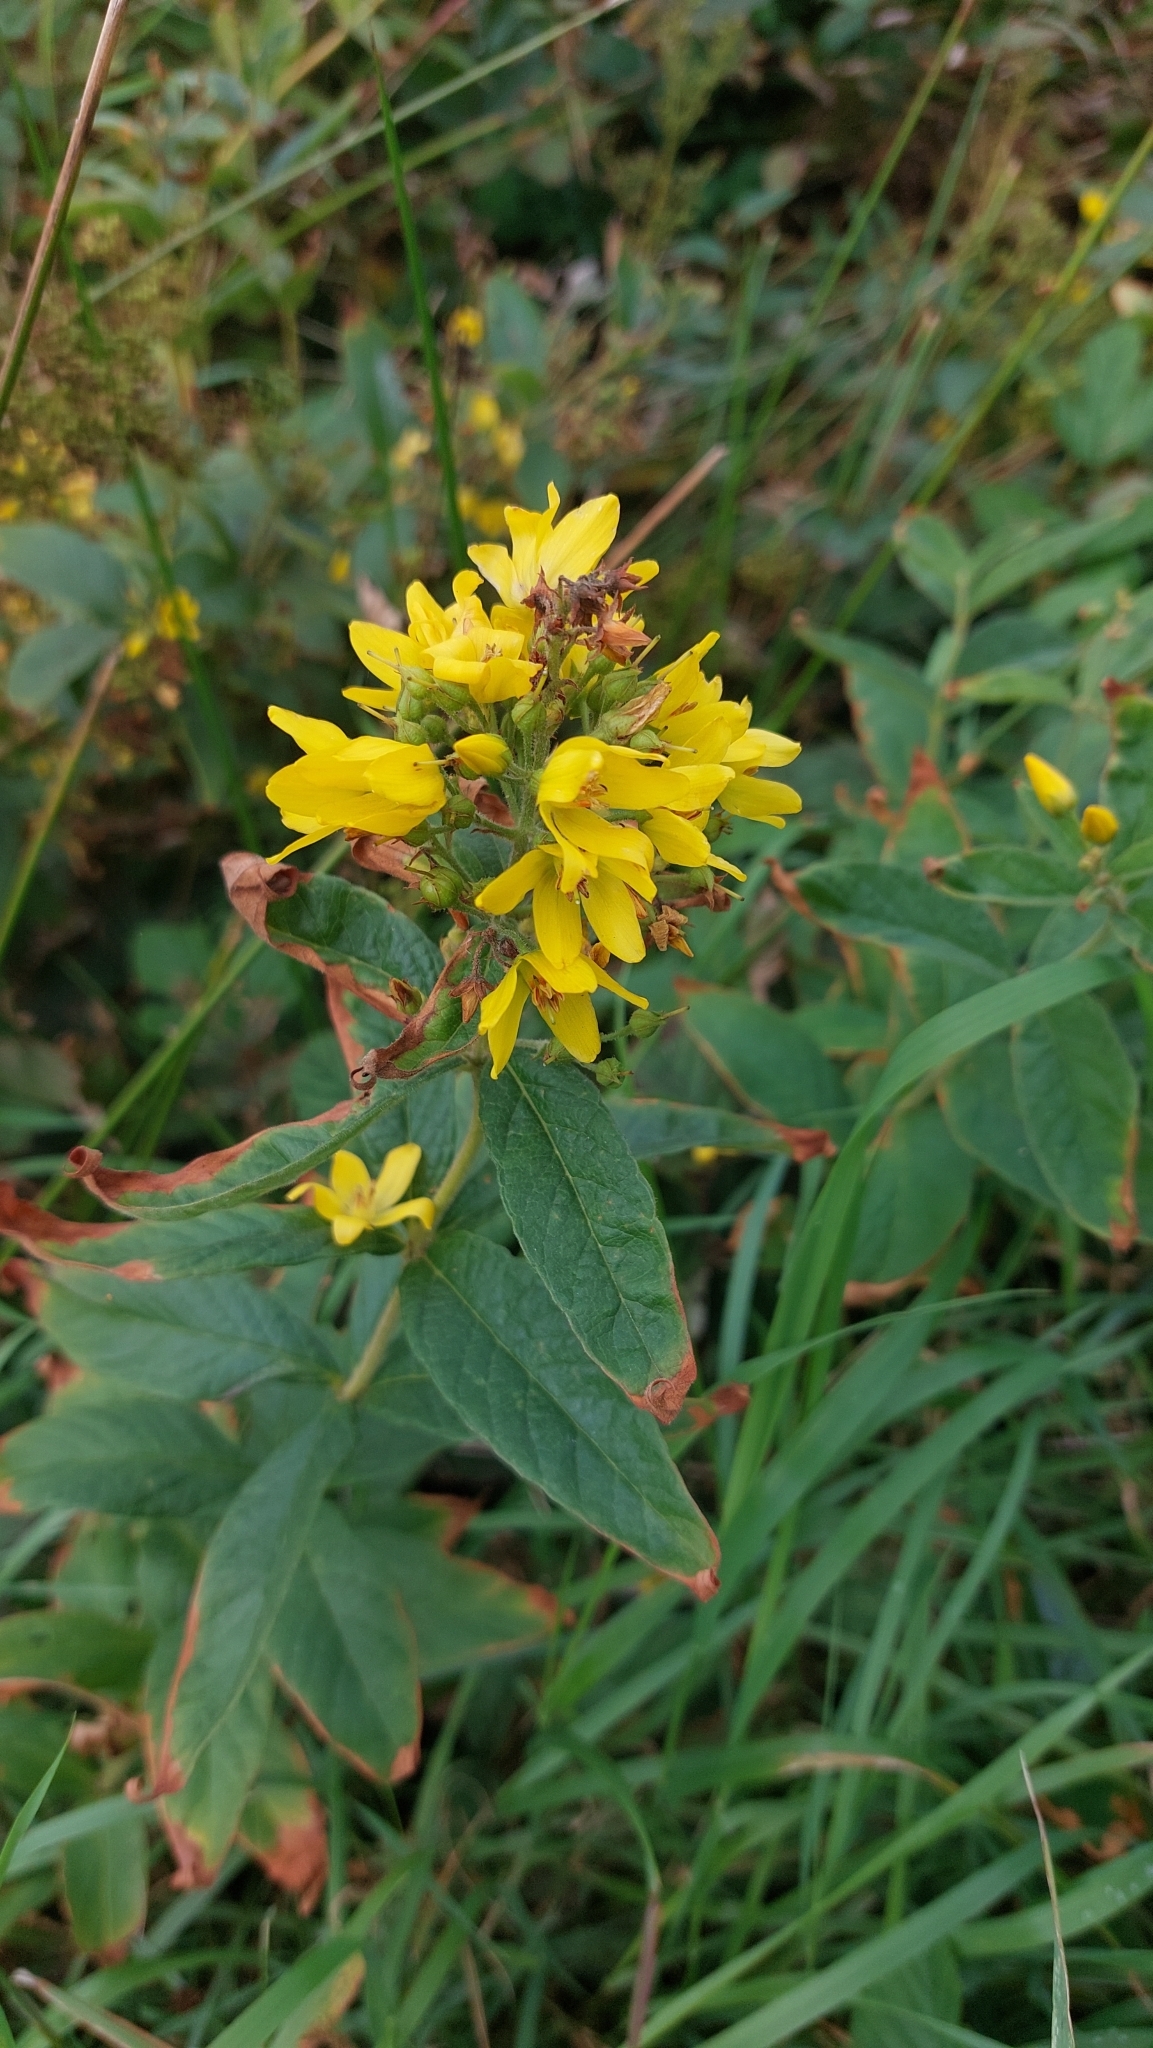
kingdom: Plantae
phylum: Tracheophyta
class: Magnoliopsida
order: Ericales
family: Primulaceae
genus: Lysimachia
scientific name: Lysimachia vulgaris
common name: Yellow loosestrife
